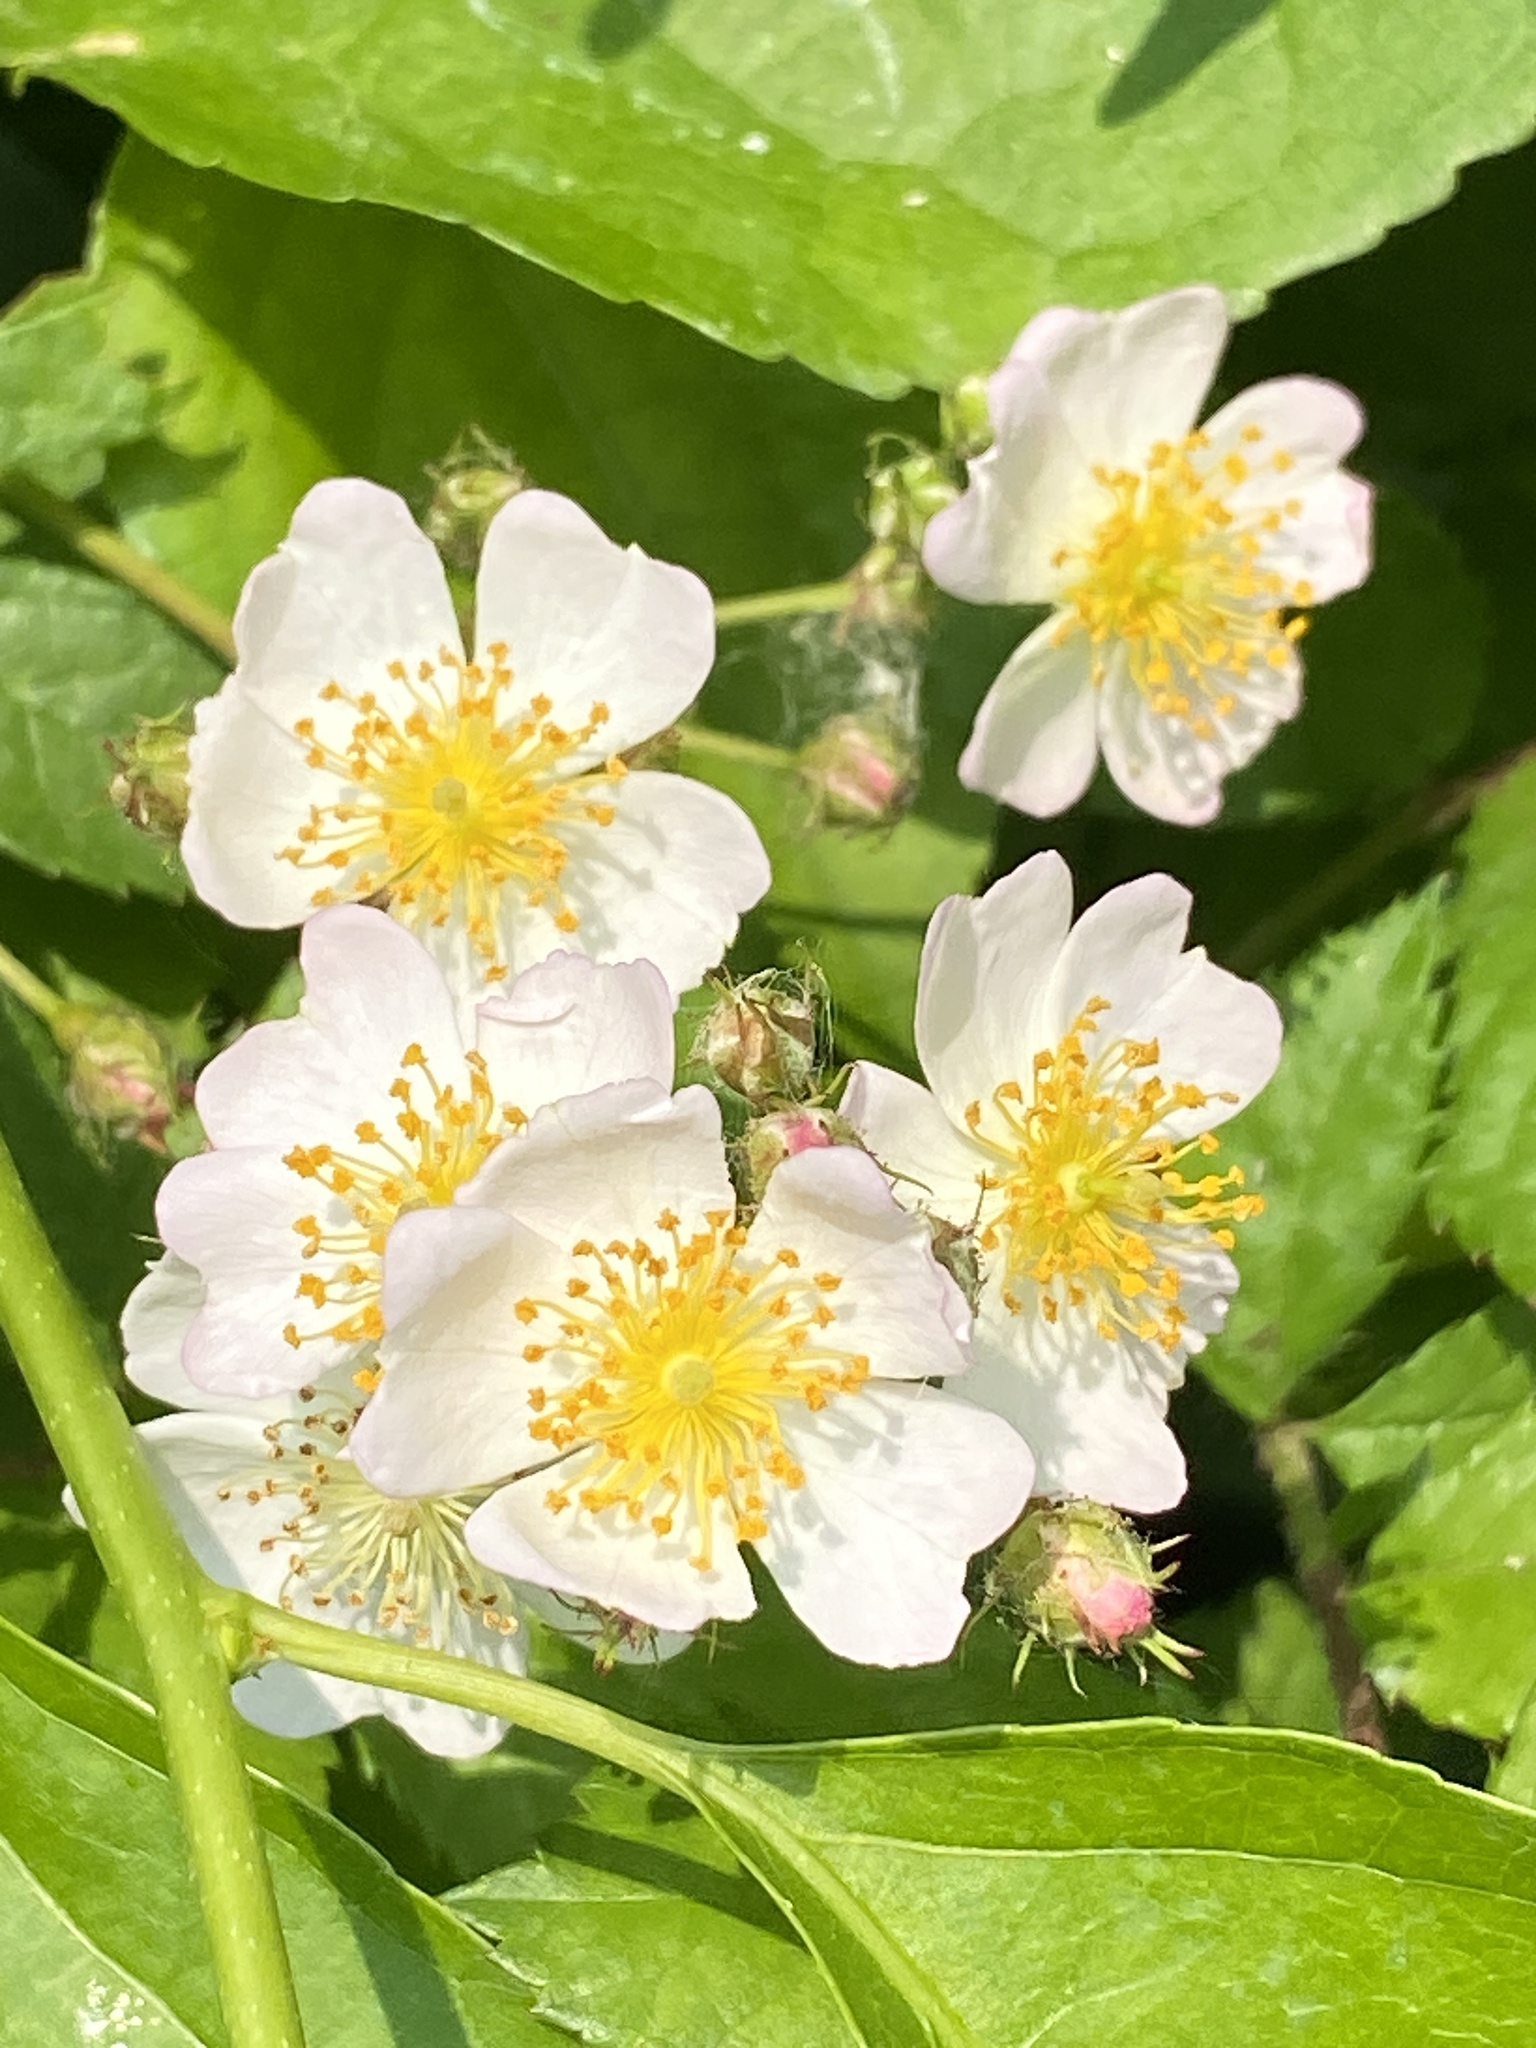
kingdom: Plantae
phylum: Tracheophyta
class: Magnoliopsida
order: Rosales
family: Rosaceae
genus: Rosa
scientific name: Rosa multiflora
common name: Multiflora rose
